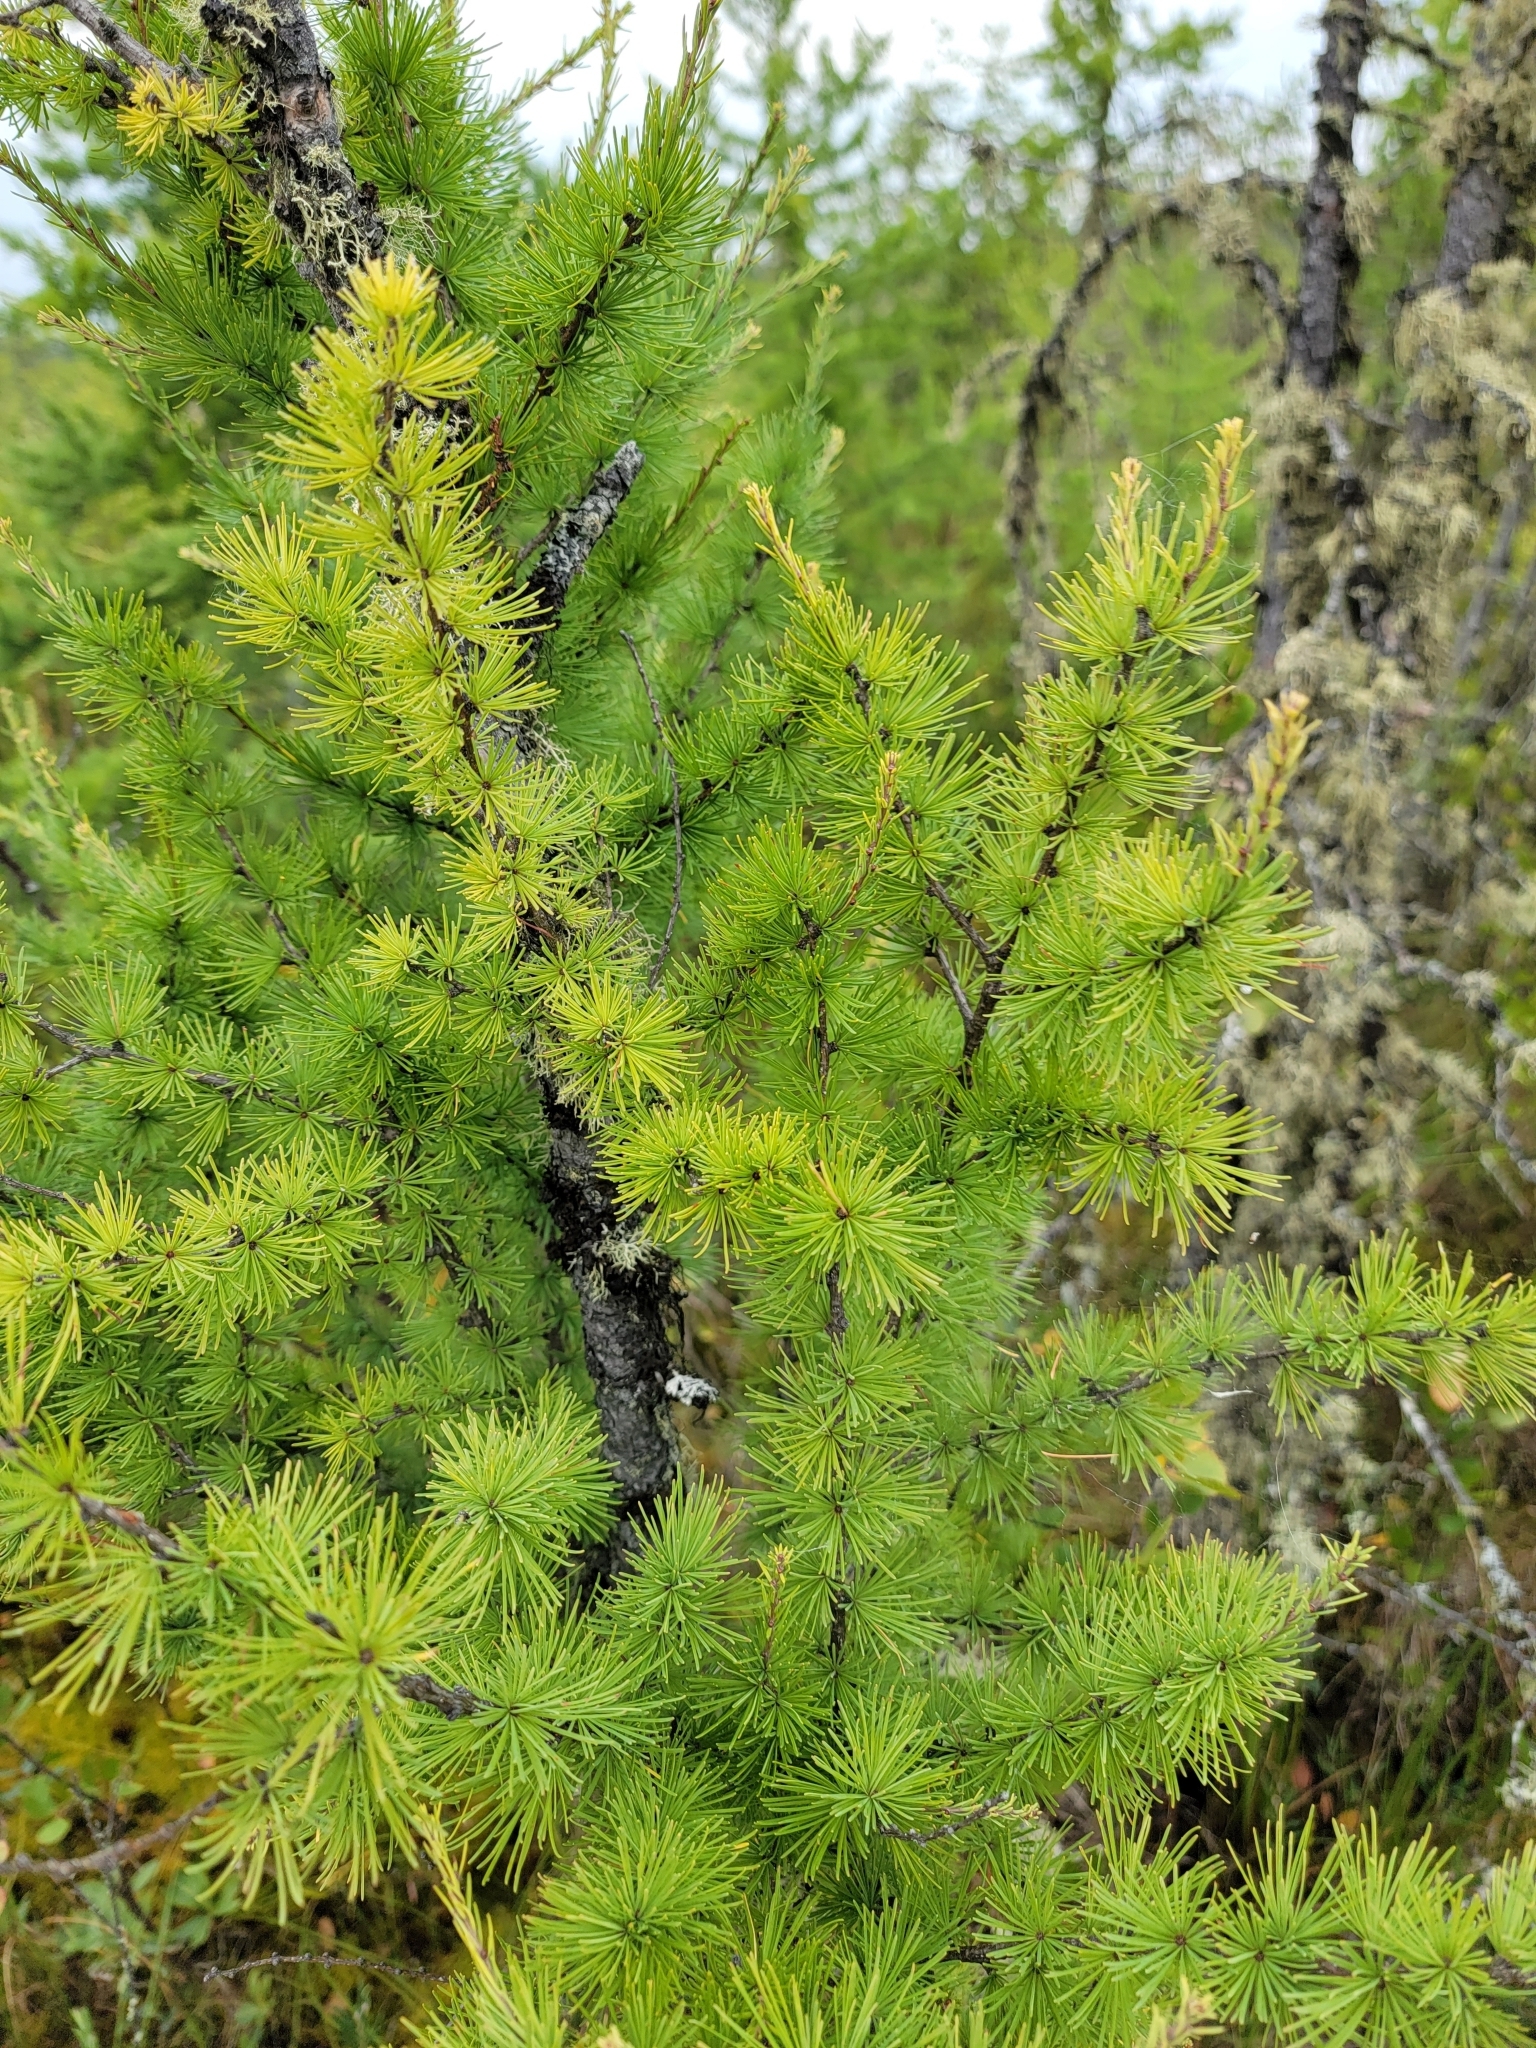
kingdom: Plantae
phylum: Tracheophyta
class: Pinopsida
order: Pinales
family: Pinaceae
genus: Larix
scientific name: Larix laricina
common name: American larch
